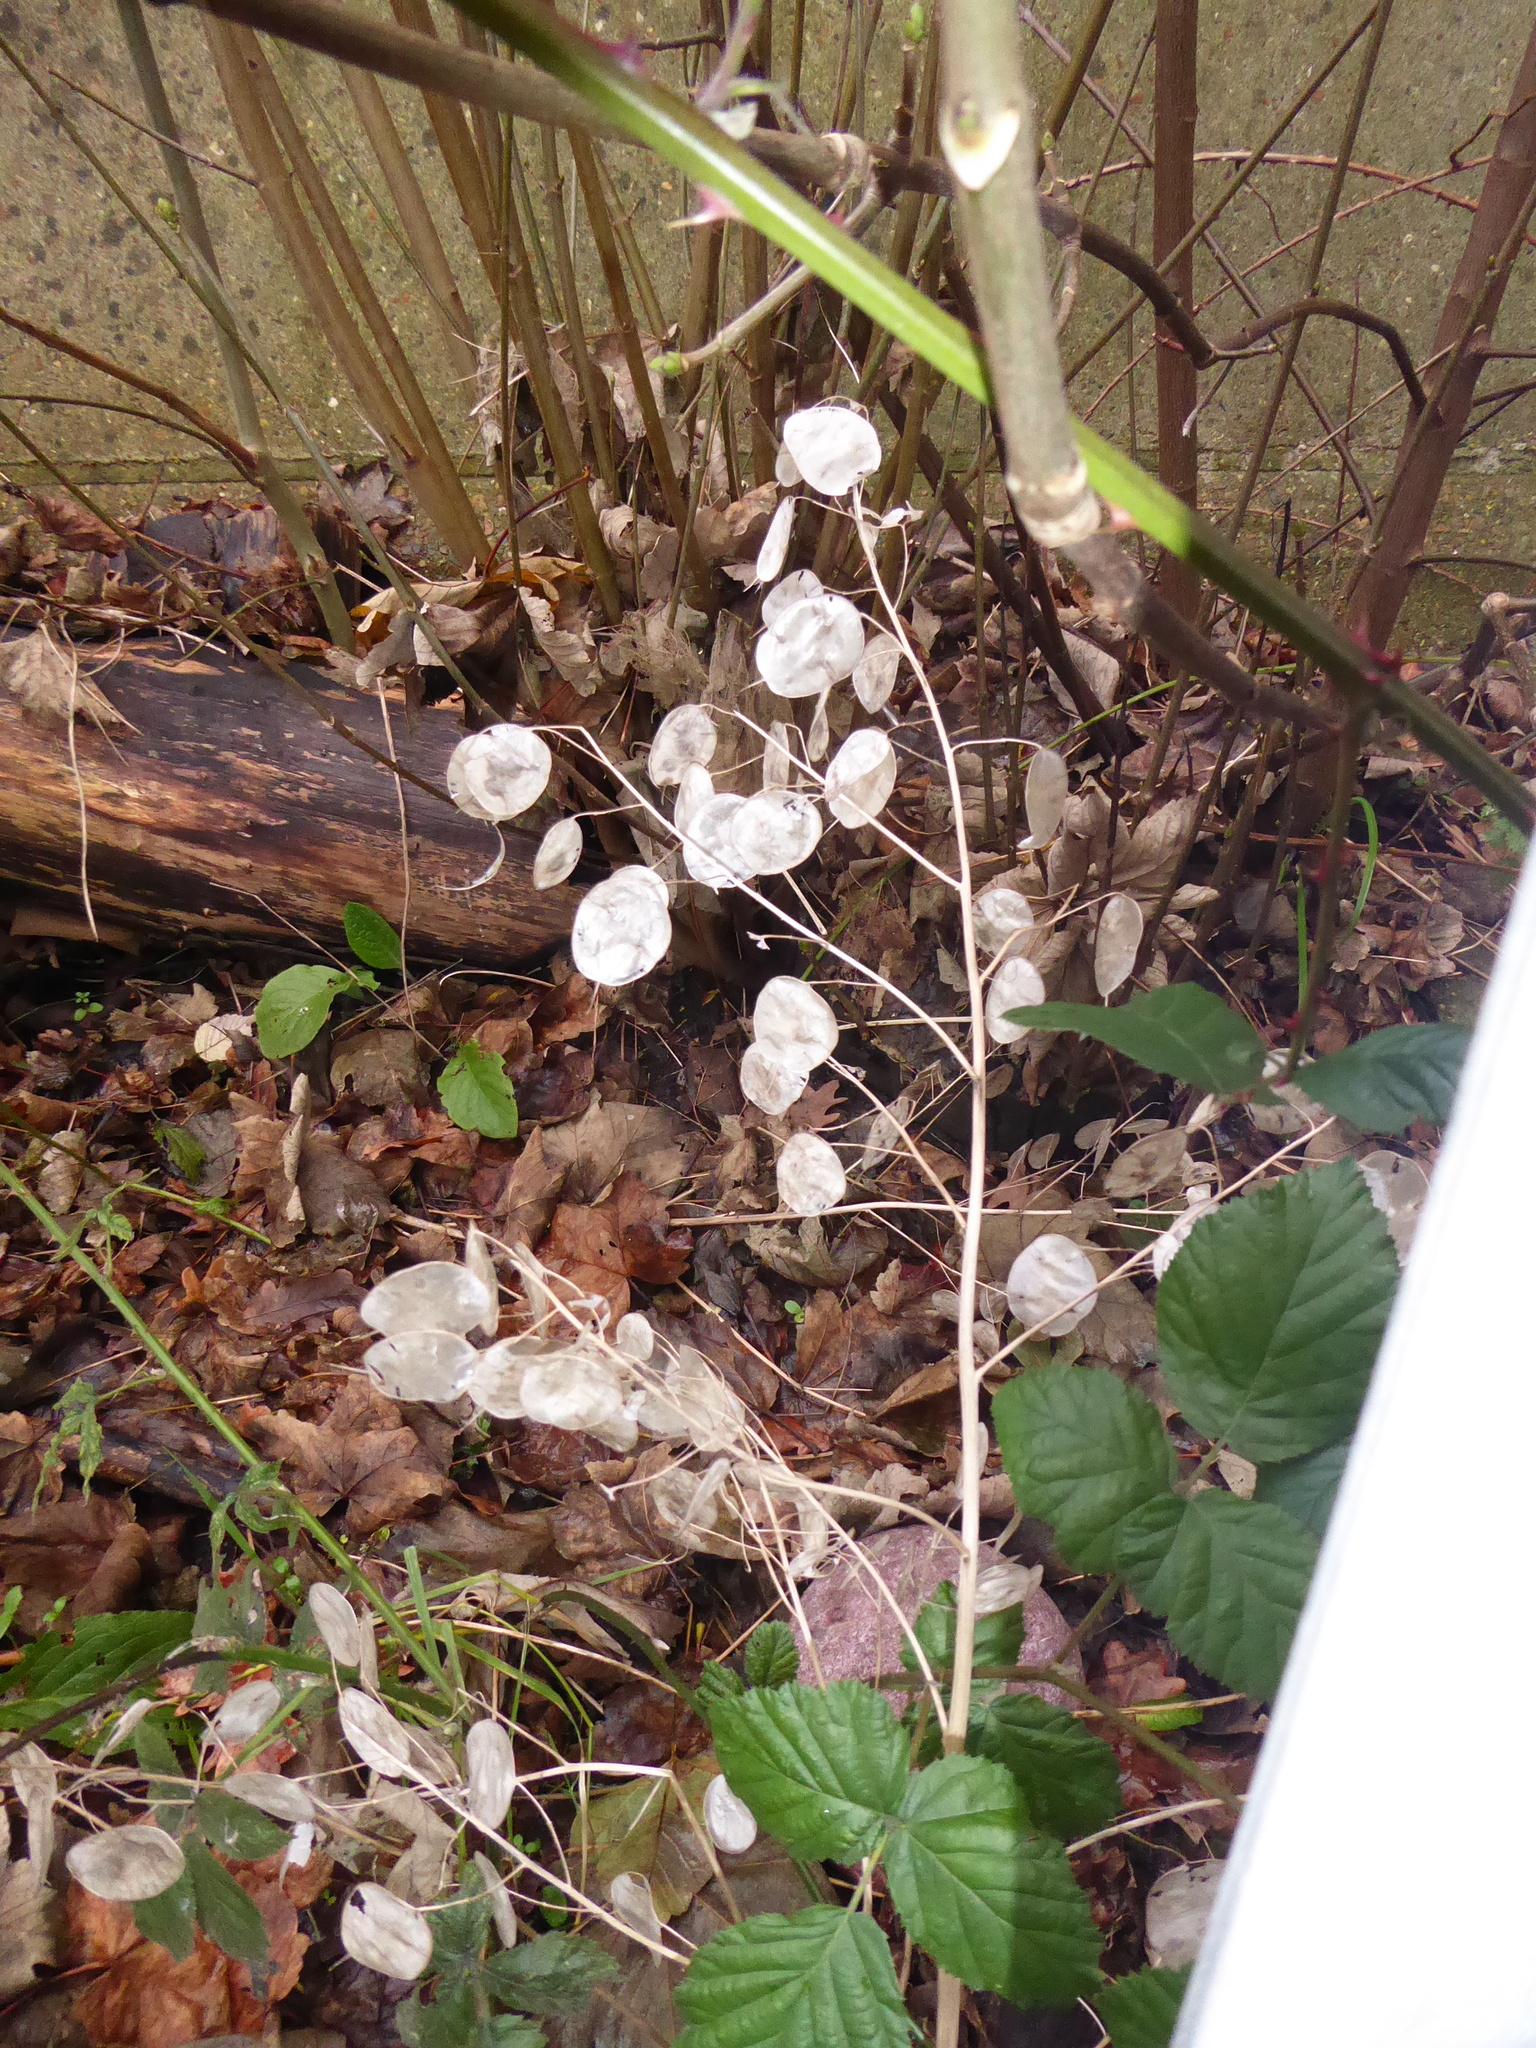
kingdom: Plantae
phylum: Tracheophyta
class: Magnoliopsida
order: Brassicales
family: Brassicaceae
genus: Lunaria
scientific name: Lunaria annua
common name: Honesty
